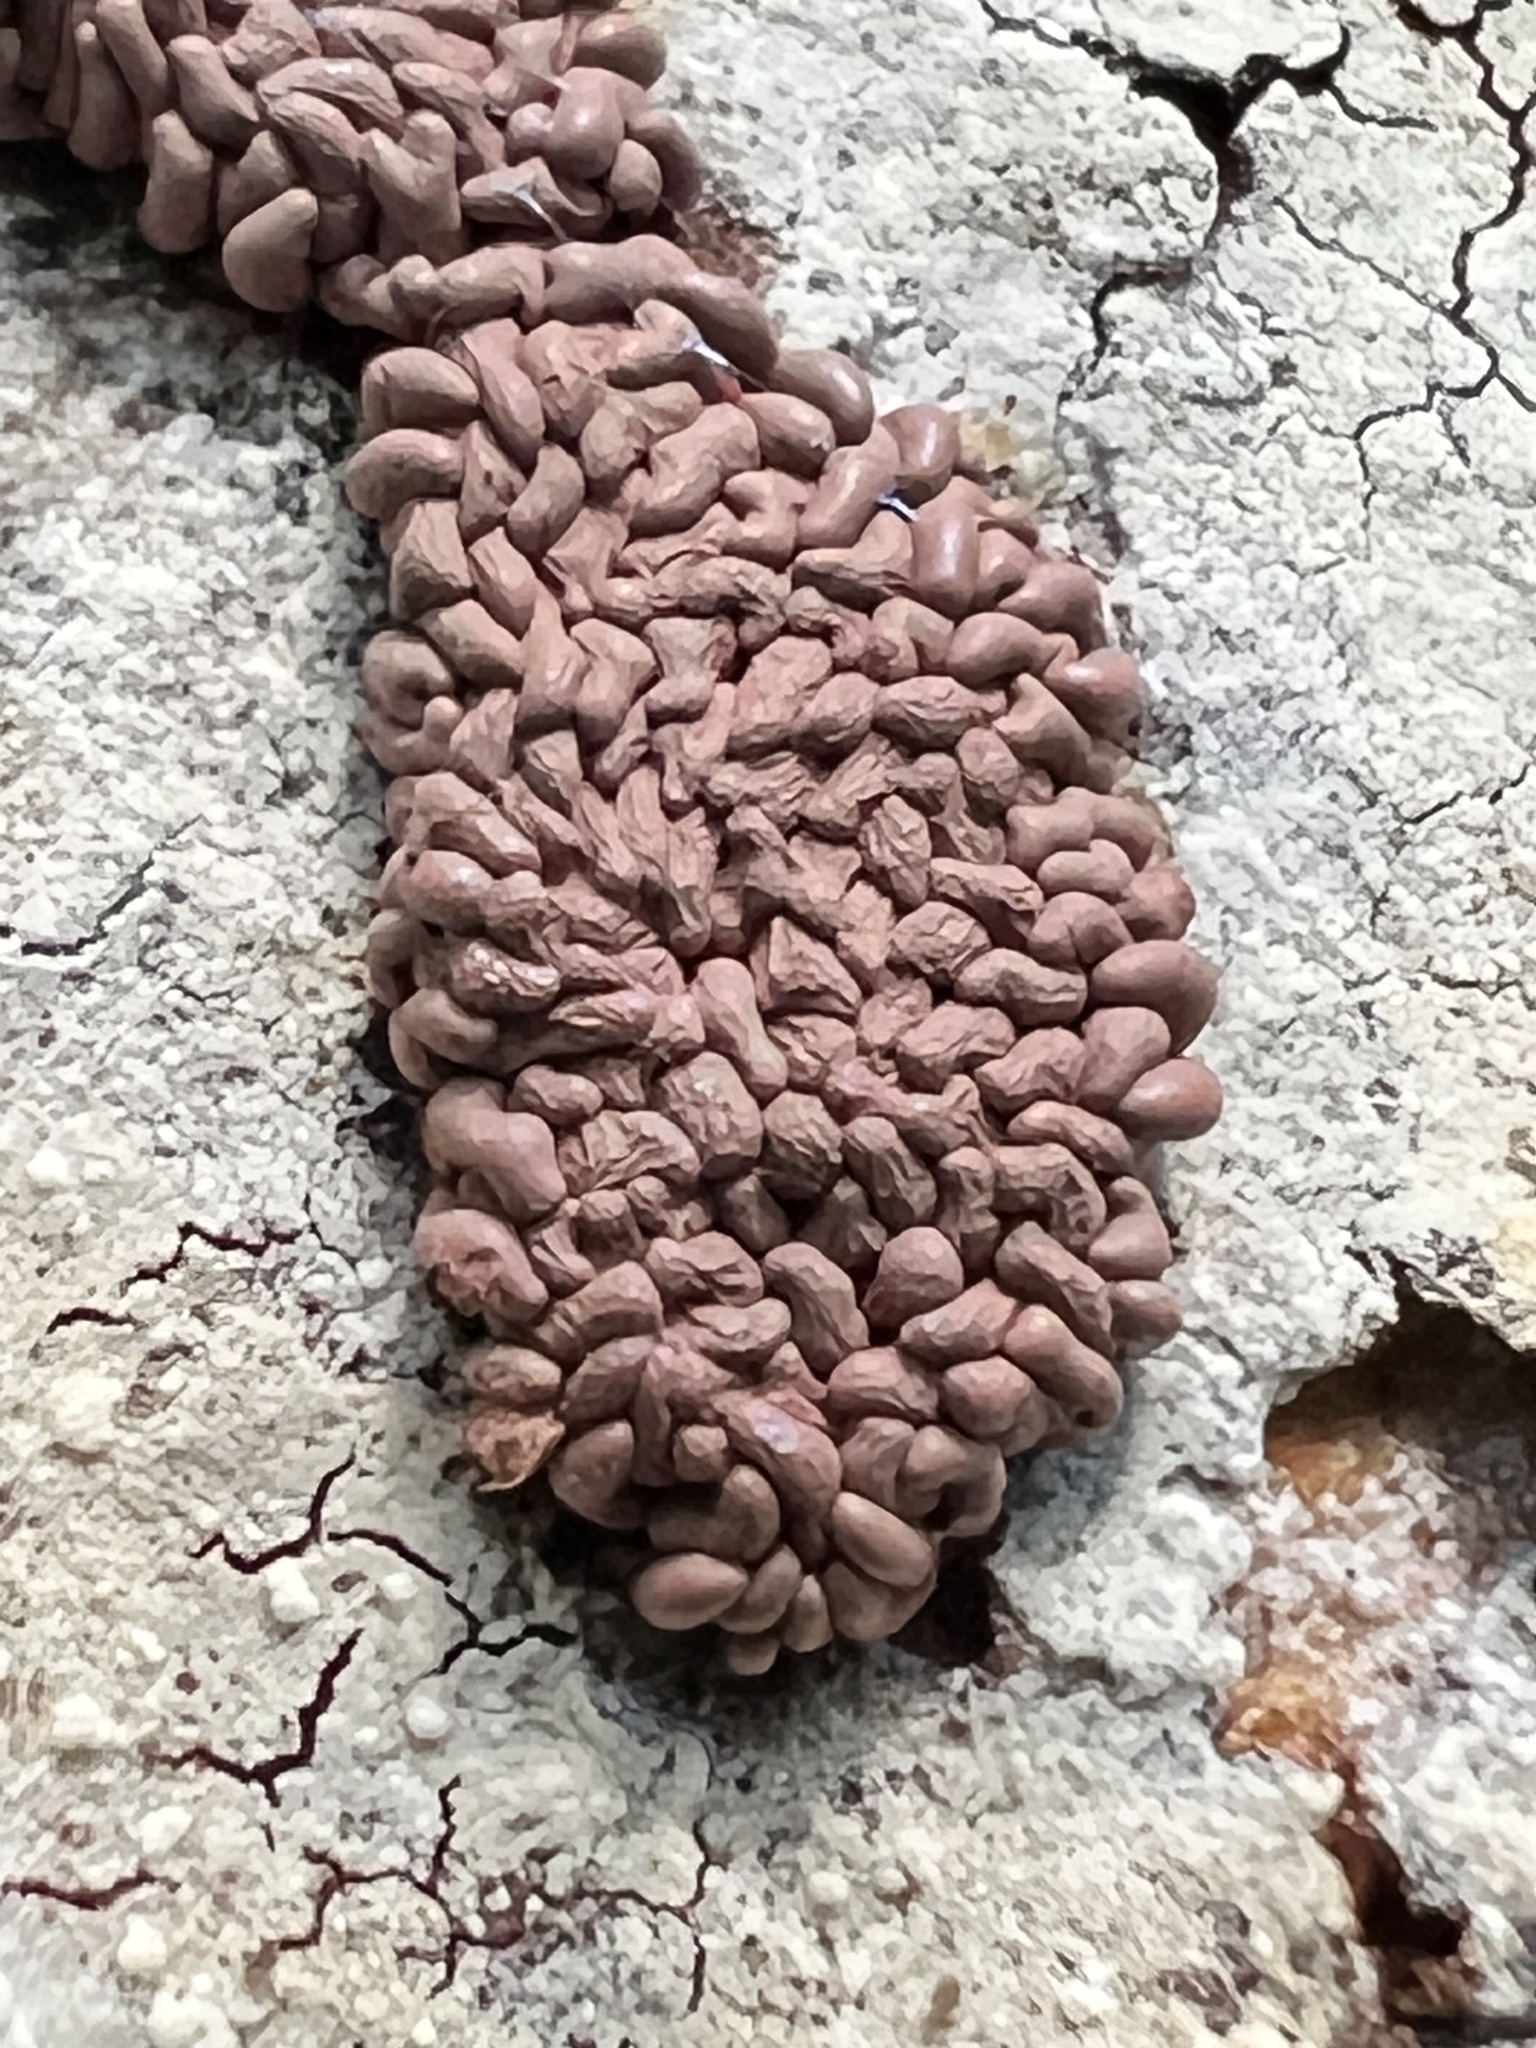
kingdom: Protozoa
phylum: Mycetozoa
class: Myxomycetes
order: Trichiales
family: Arcyriaceae
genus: Arcyria
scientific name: Arcyria stipata
